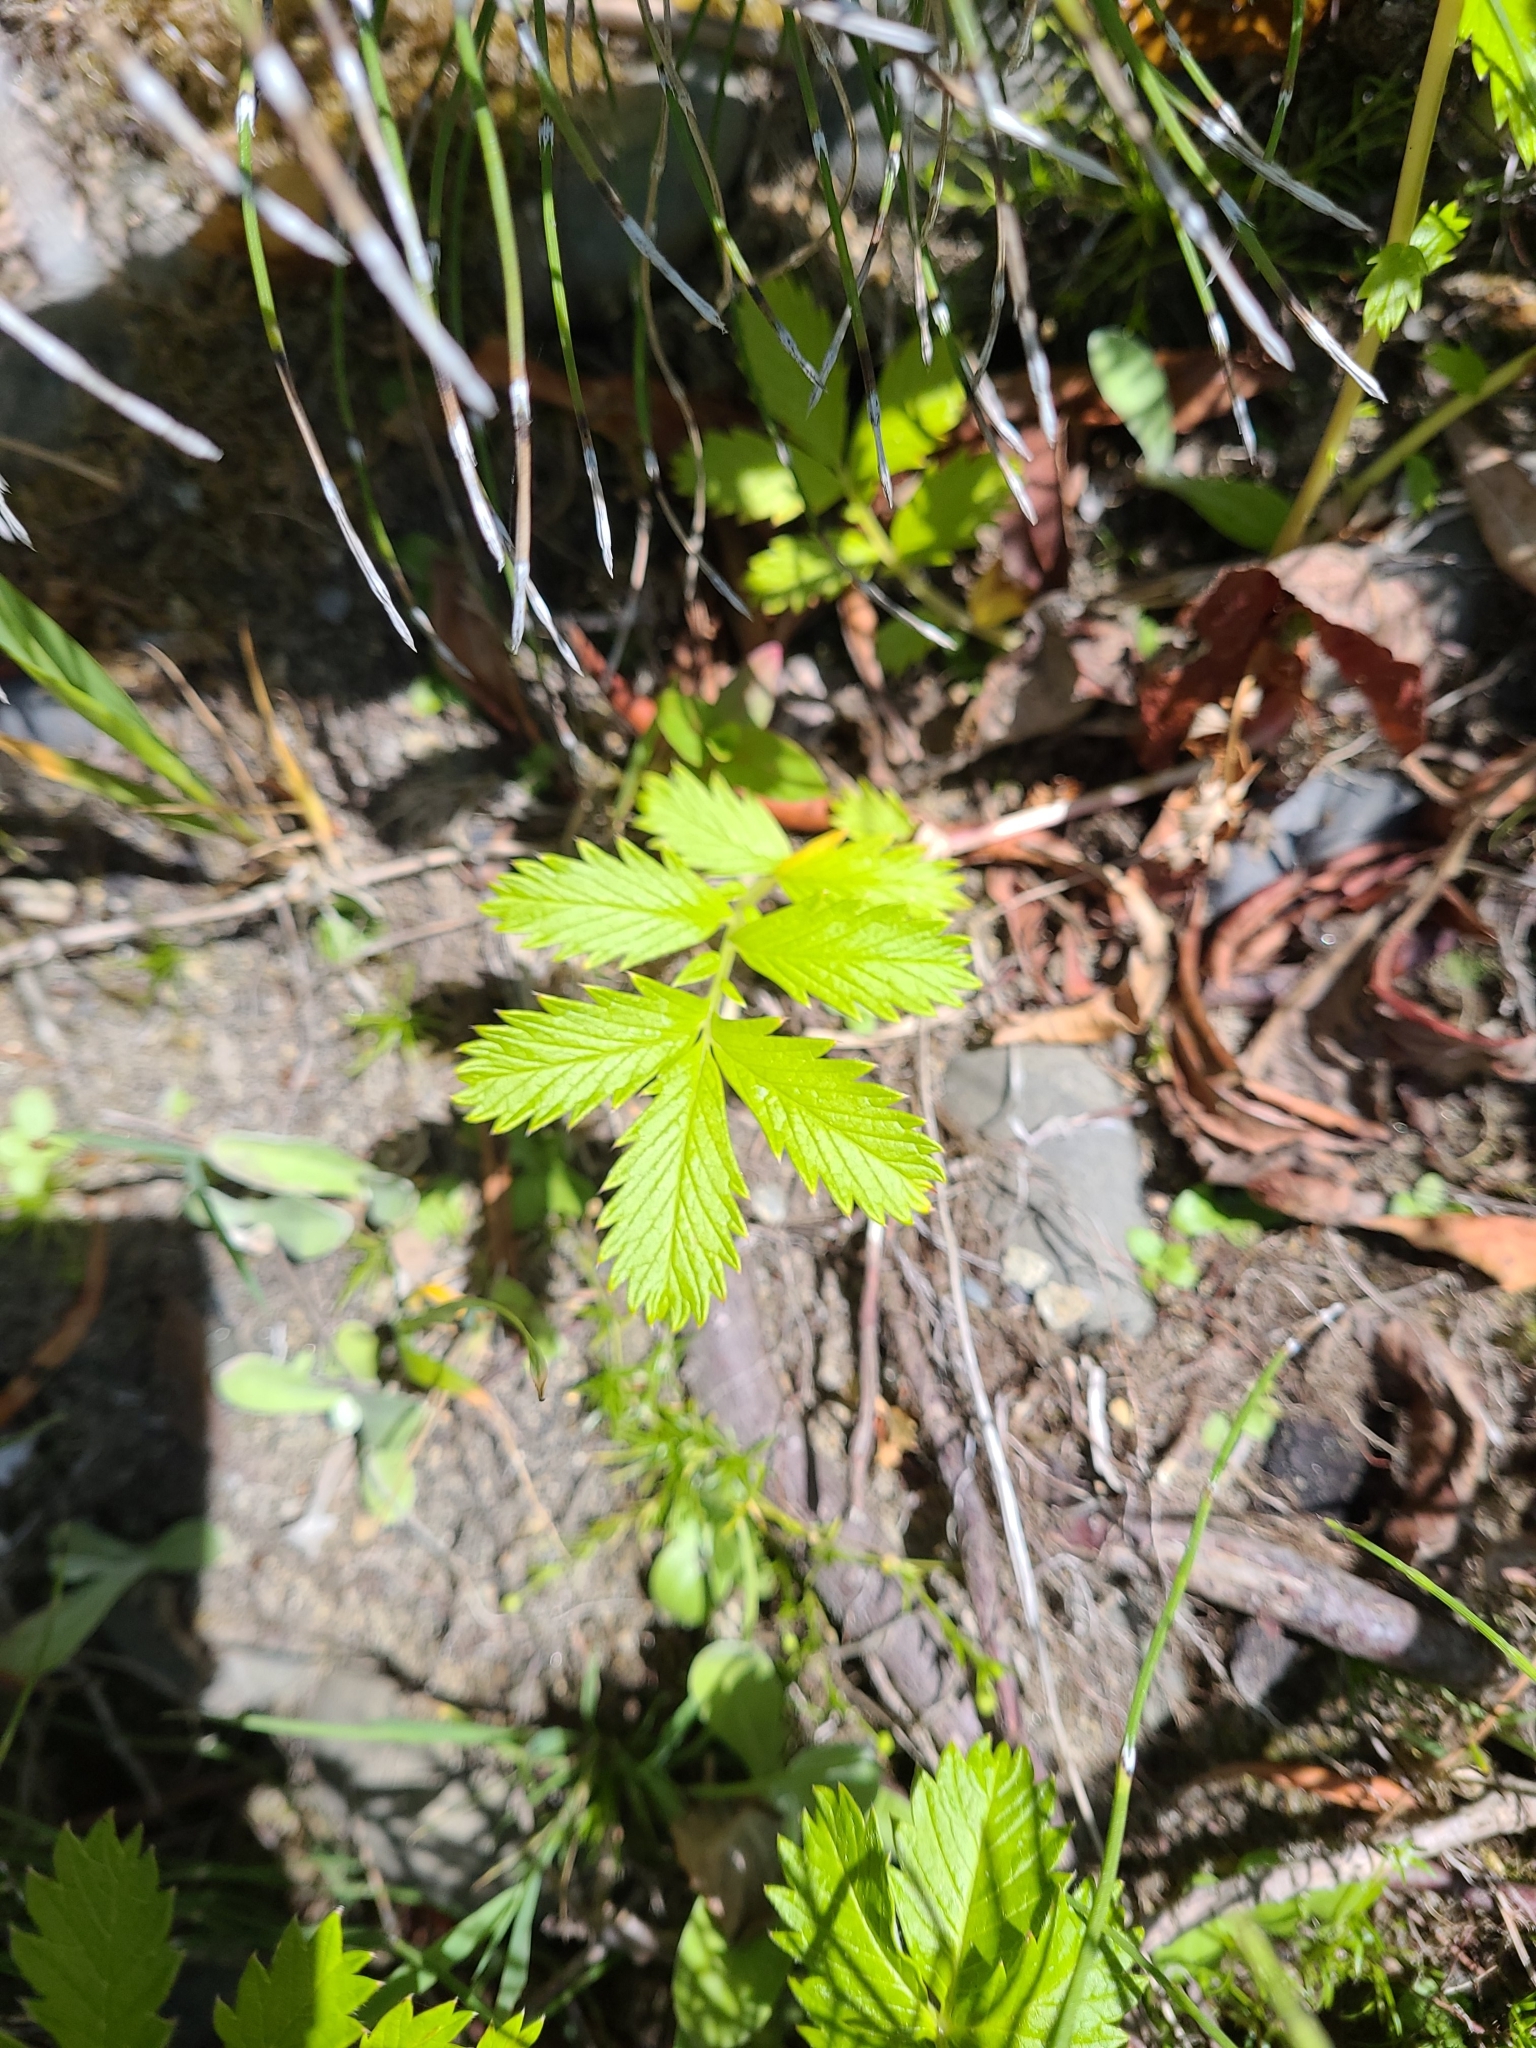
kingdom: Plantae
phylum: Tracheophyta
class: Magnoliopsida
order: Rosales
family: Rosaceae
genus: Argentina
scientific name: Argentina anserina
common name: Common silverweed
